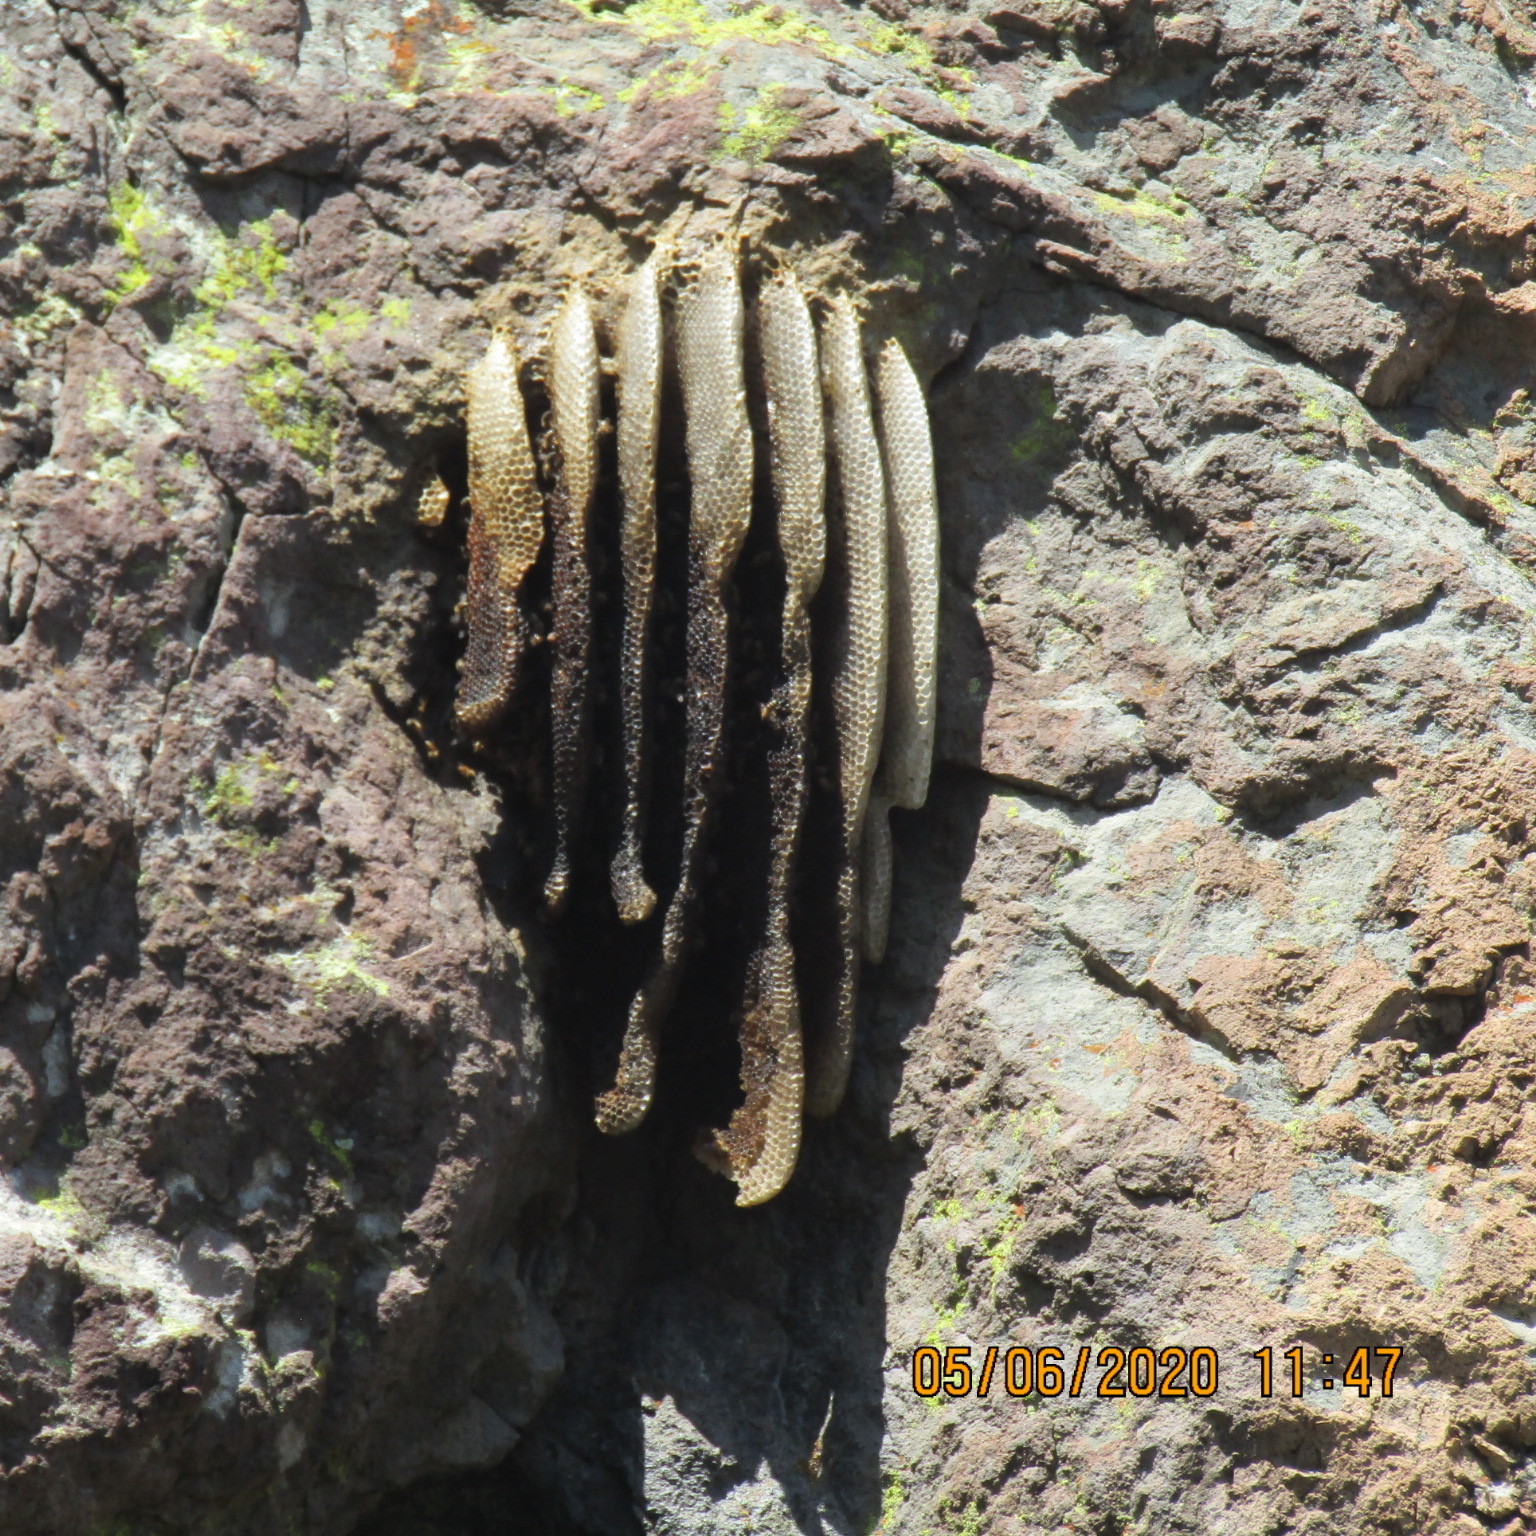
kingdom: Animalia
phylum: Arthropoda
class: Insecta
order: Hymenoptera
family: Apidae
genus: Apis
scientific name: Apis mellifera
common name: Honey bee
